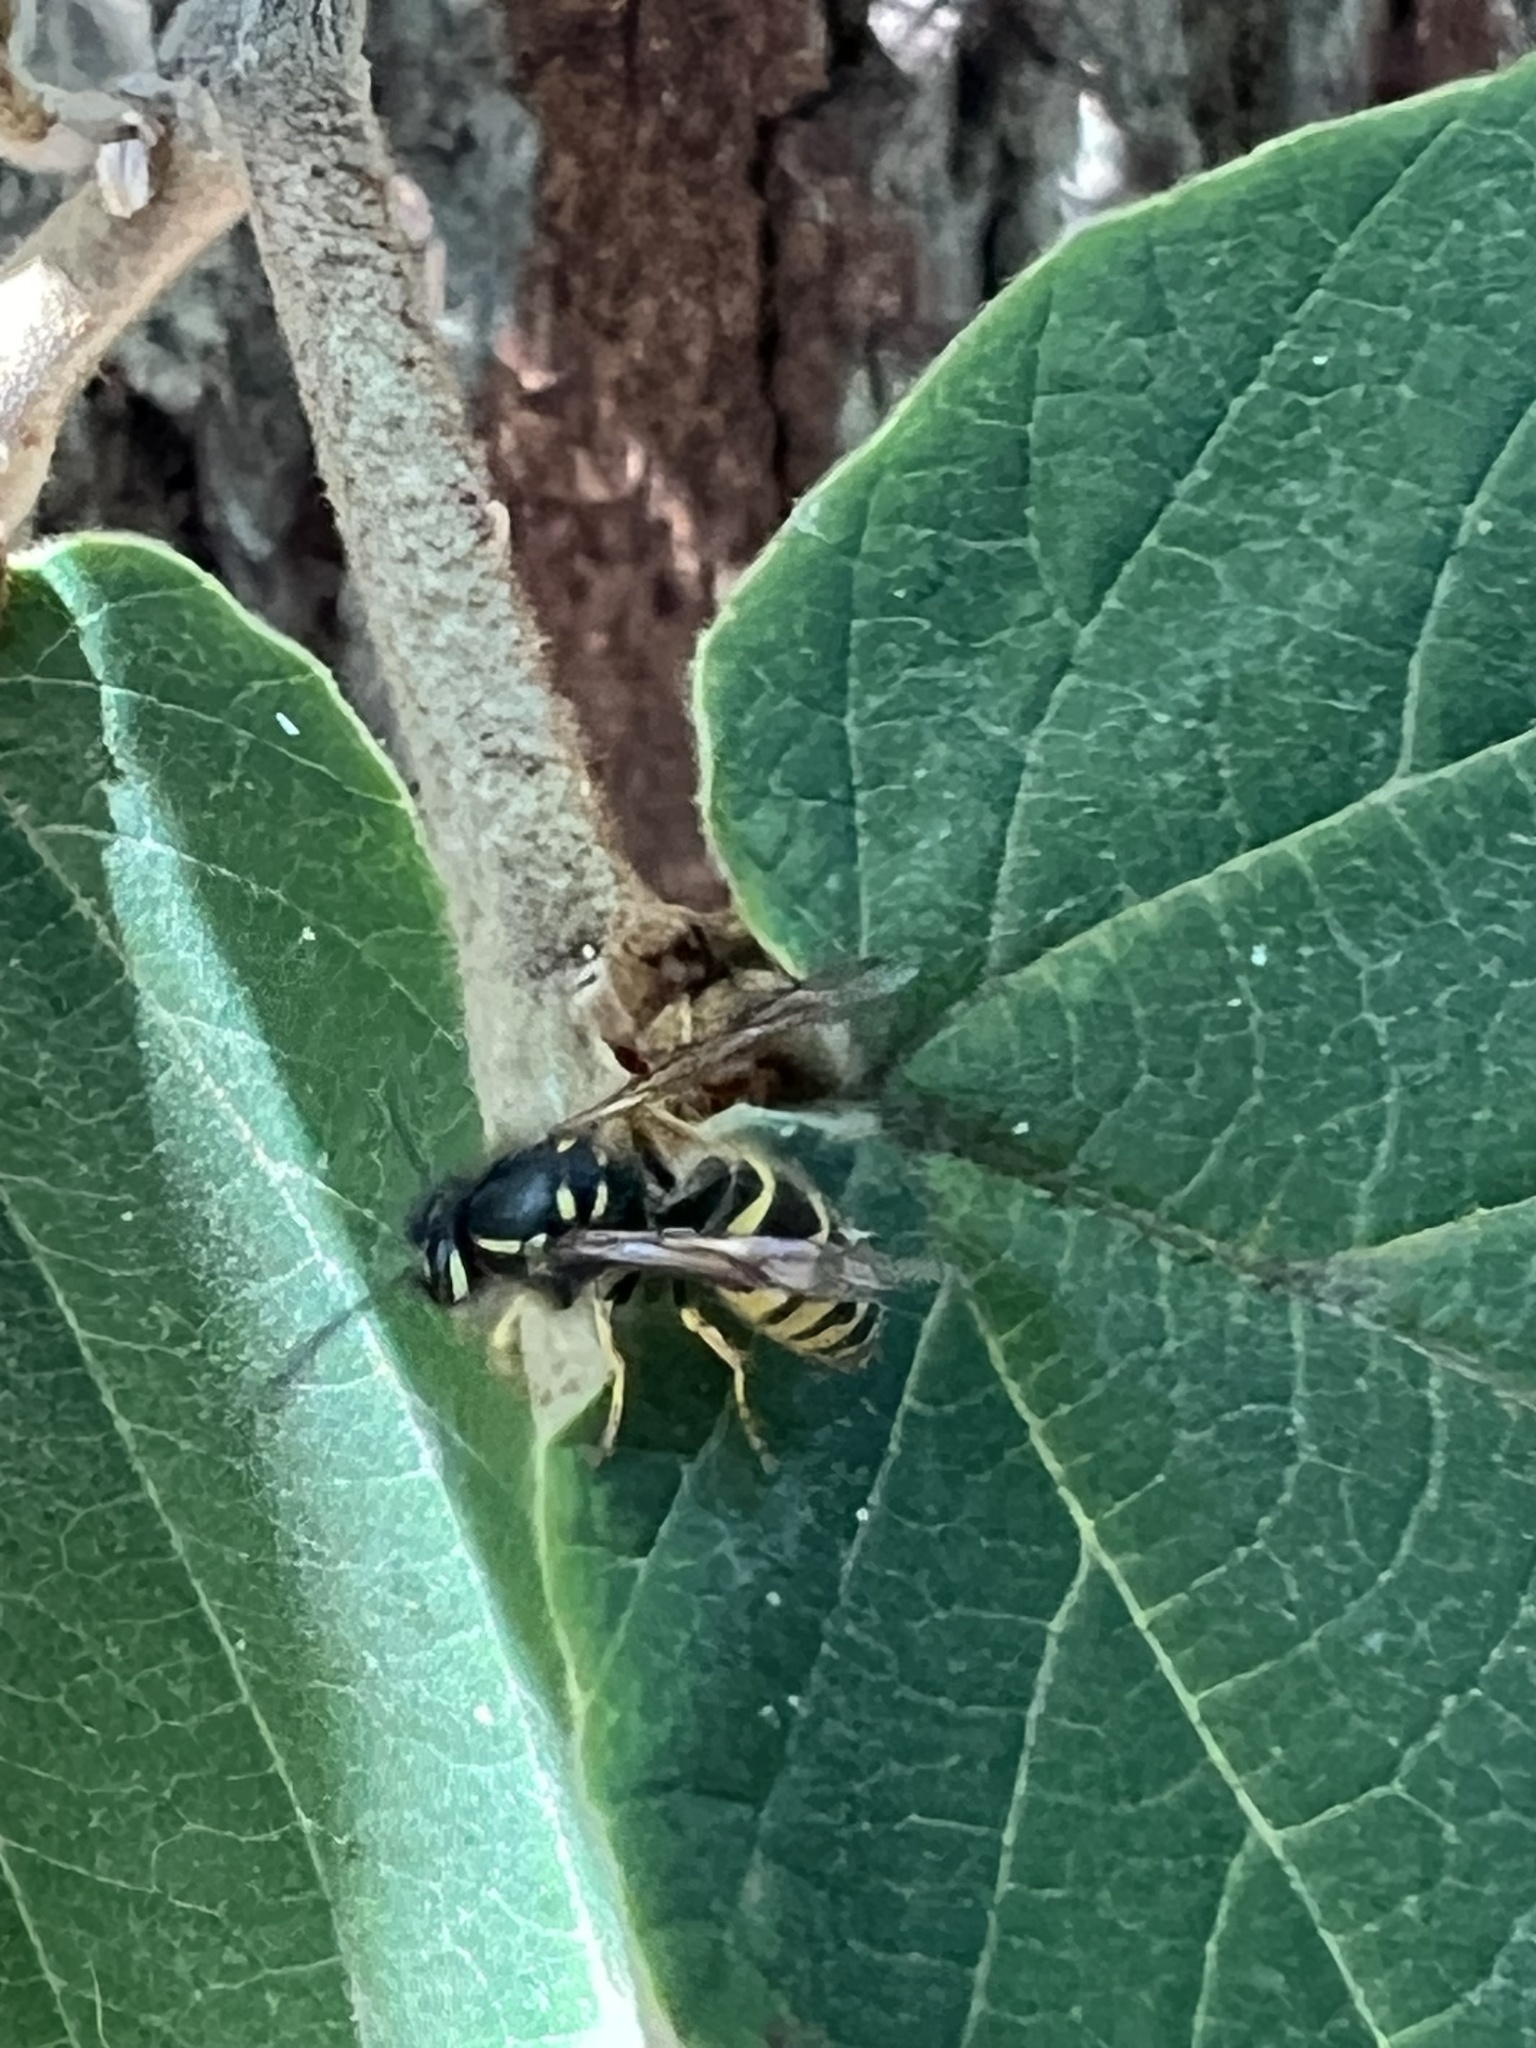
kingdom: Animalia
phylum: Arthropoda
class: Insecta
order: Hymenoptera
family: Vespidae
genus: Vespula
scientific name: Vespula alascensis
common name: Alaska yellowjacket
